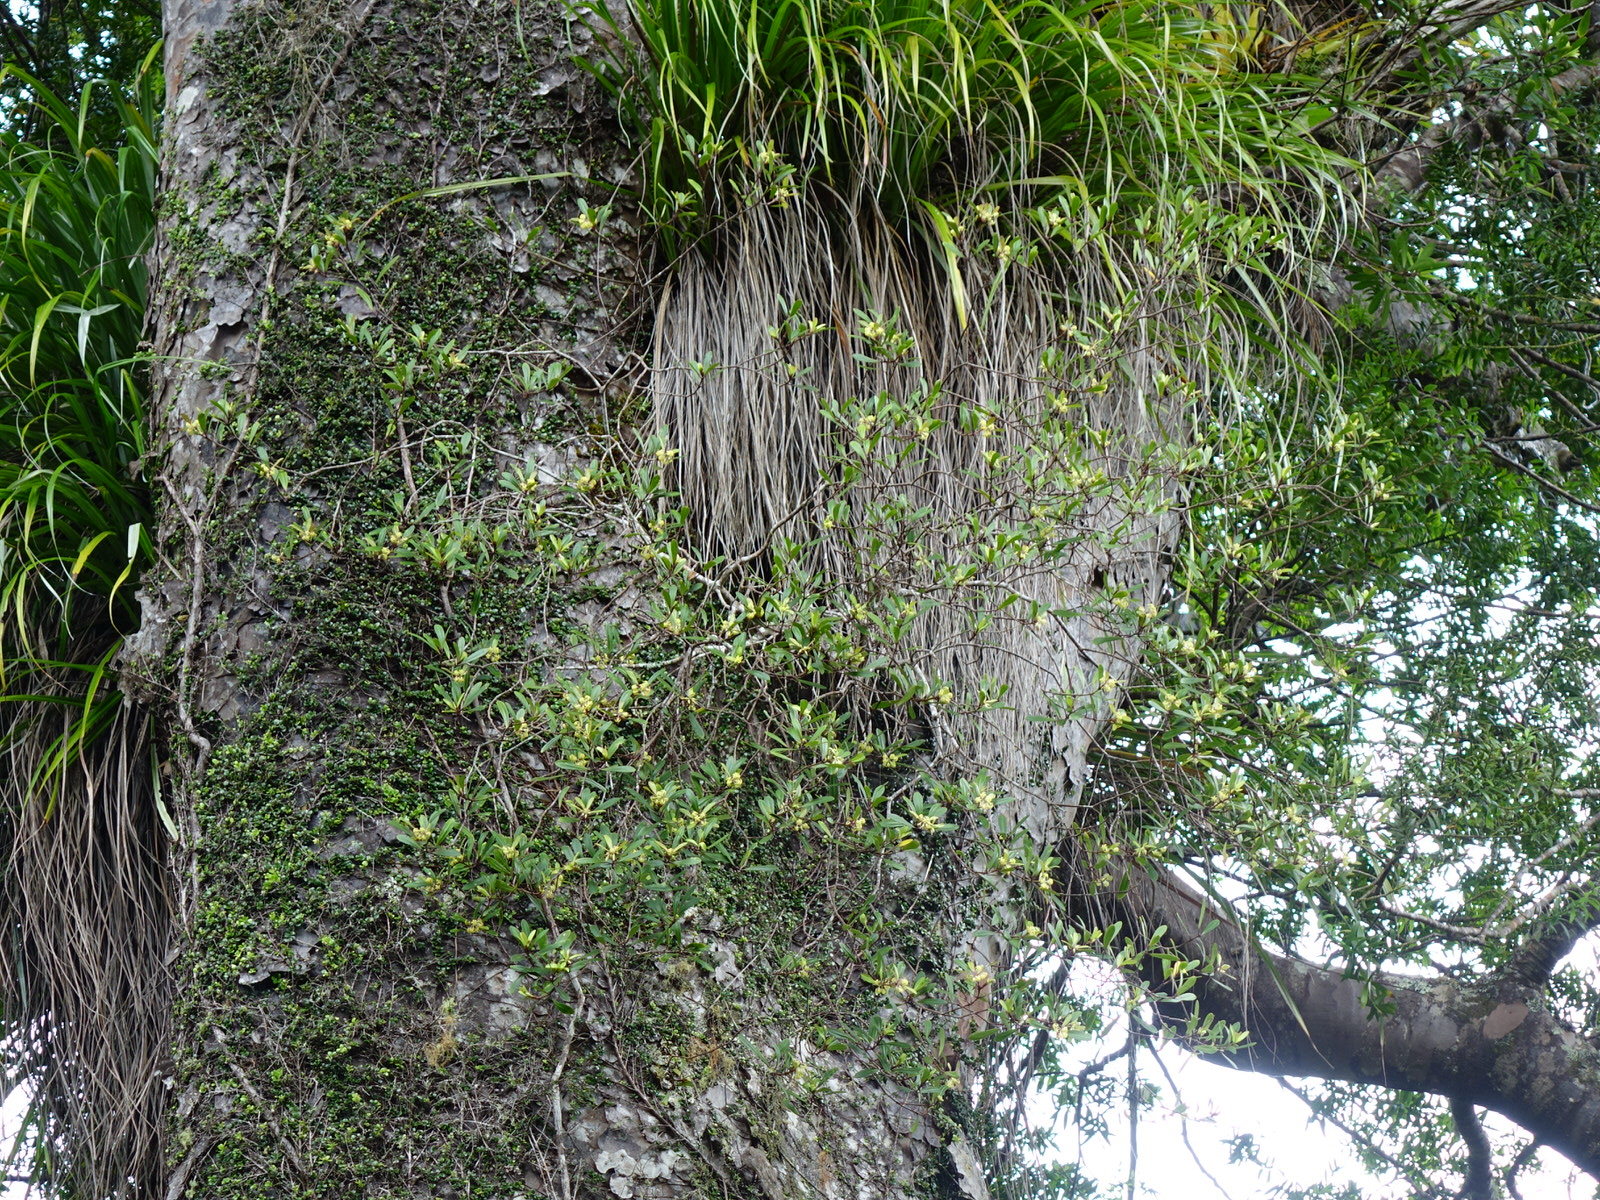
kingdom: Plantae
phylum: Tracheophyta
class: Magnoliopsida
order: Apiales
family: Pittosporaceae
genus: Pittosporum
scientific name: Pittosporum kirkii
